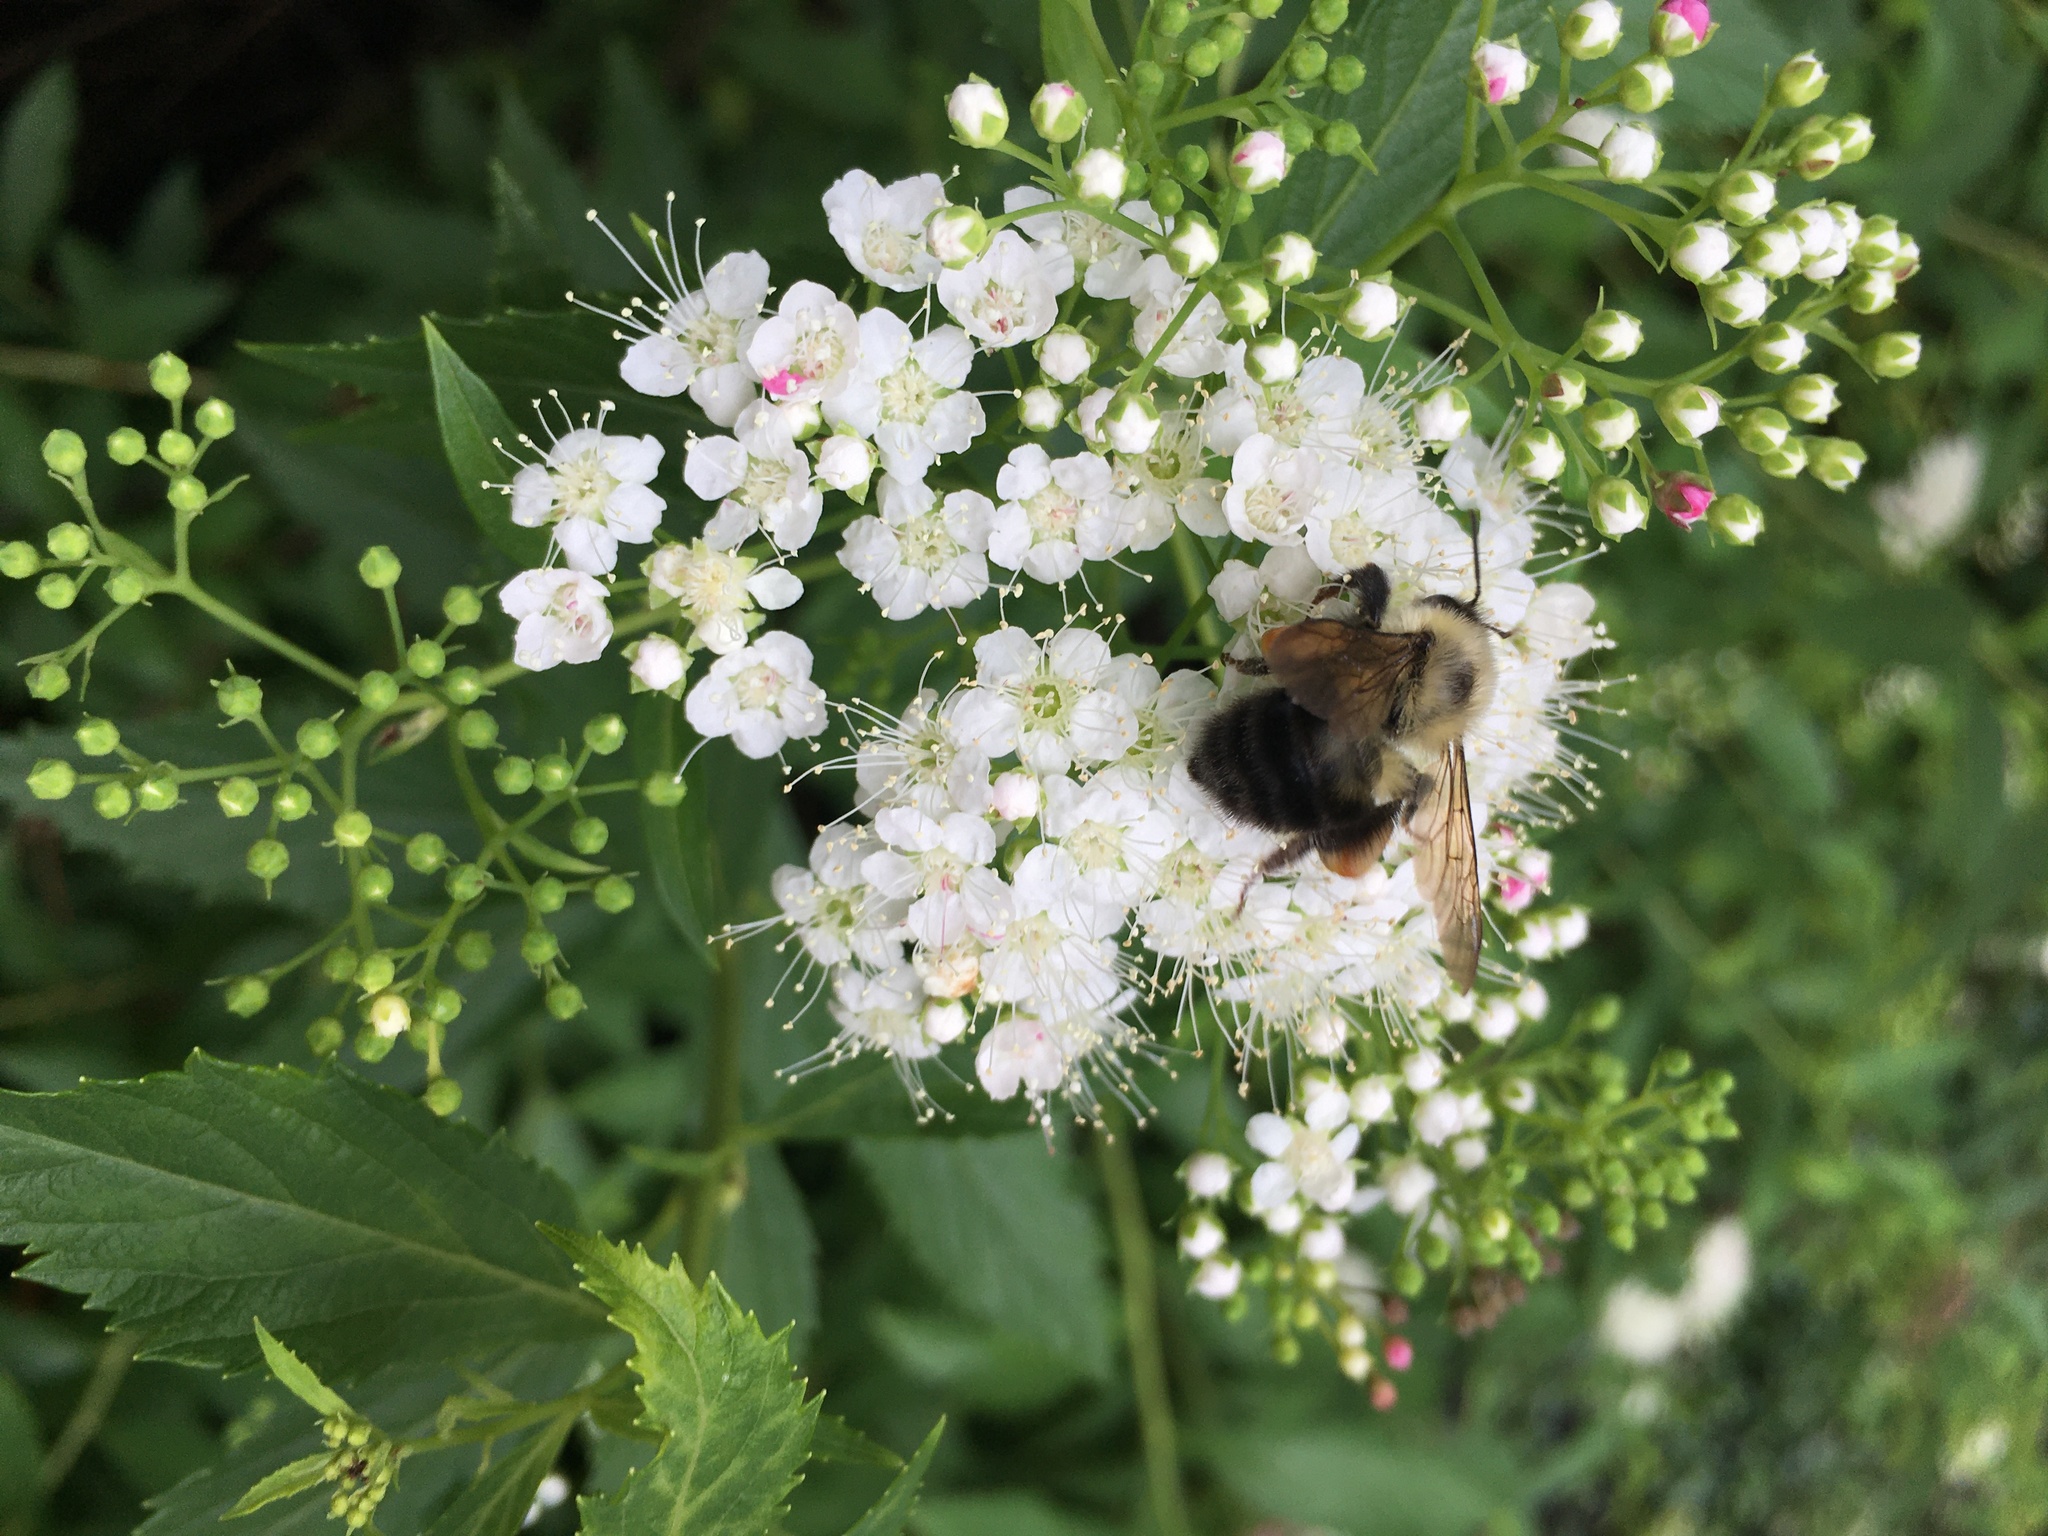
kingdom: Animalia
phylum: Arthropoda
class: Insecta
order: Hymenoptera
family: Apidae
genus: Bombus
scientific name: Bombus bimaculatus
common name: Two-spotted bumble bee
